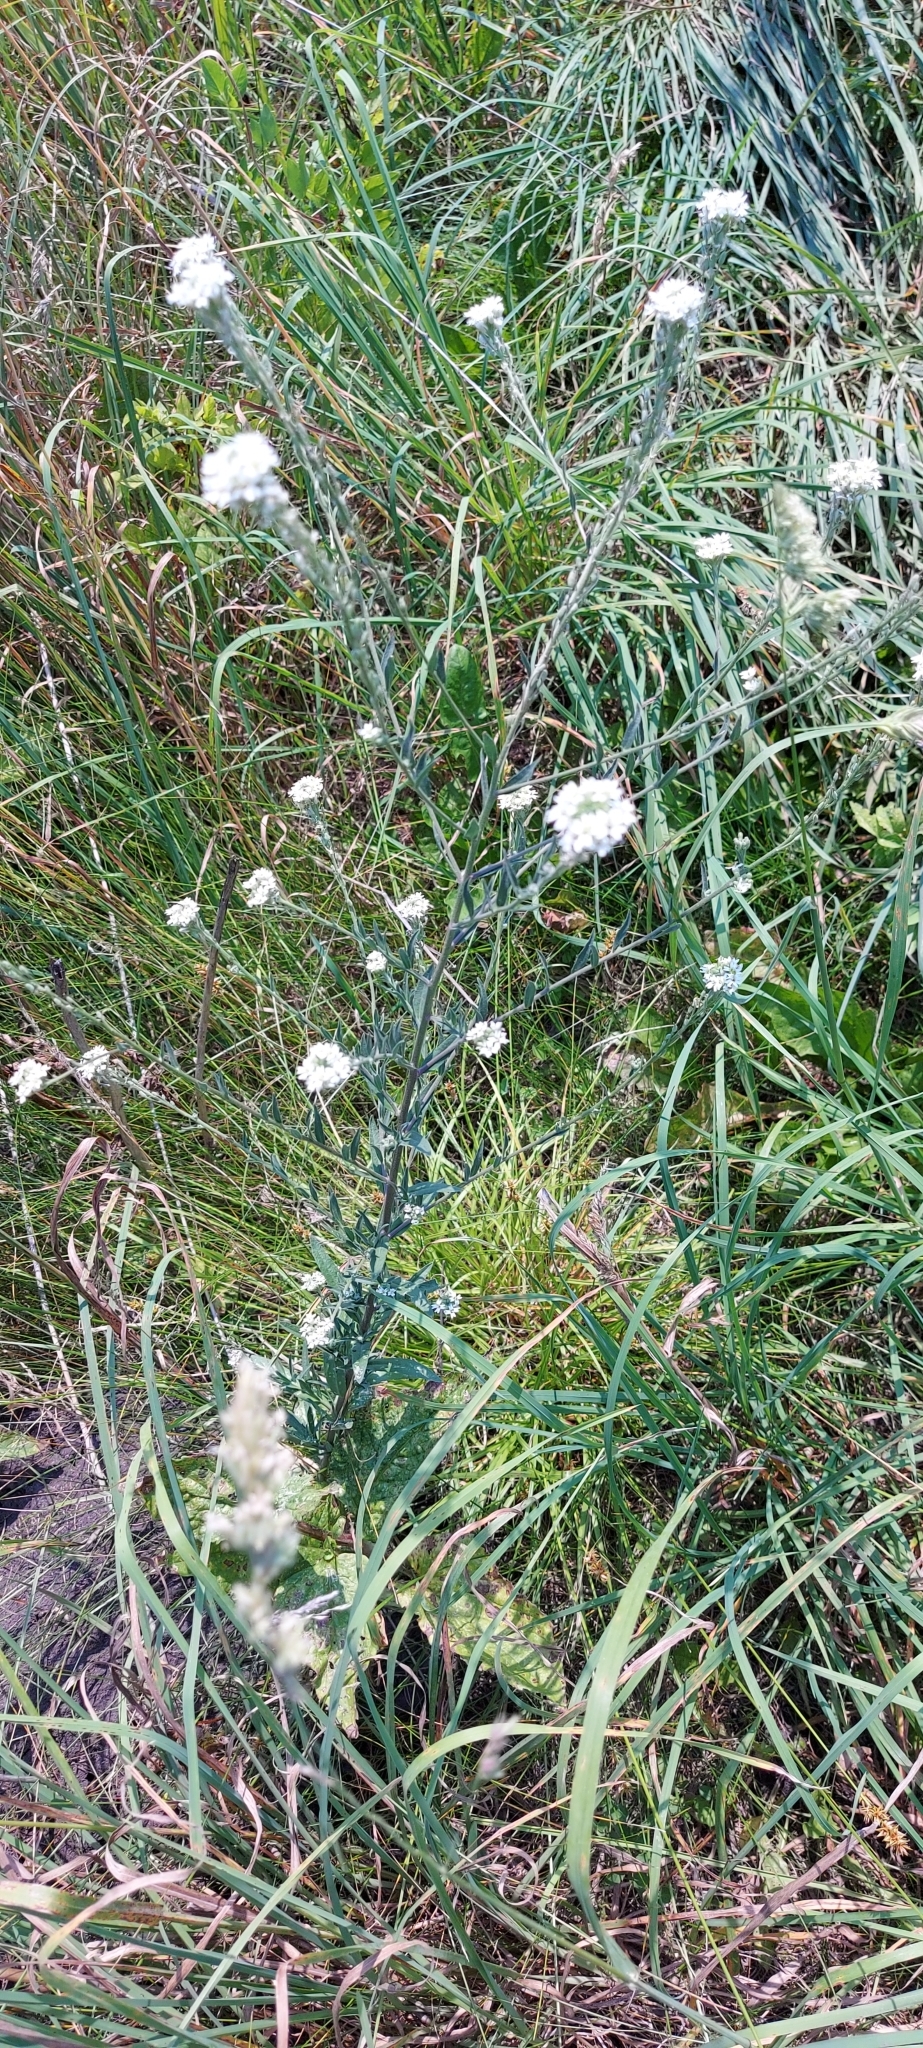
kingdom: Plantae
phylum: Tracheophyta
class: Magnoliopsida
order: Brassicales
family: Brassicaceae
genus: Berteroa
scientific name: Berteroa incana
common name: Hoary alison
